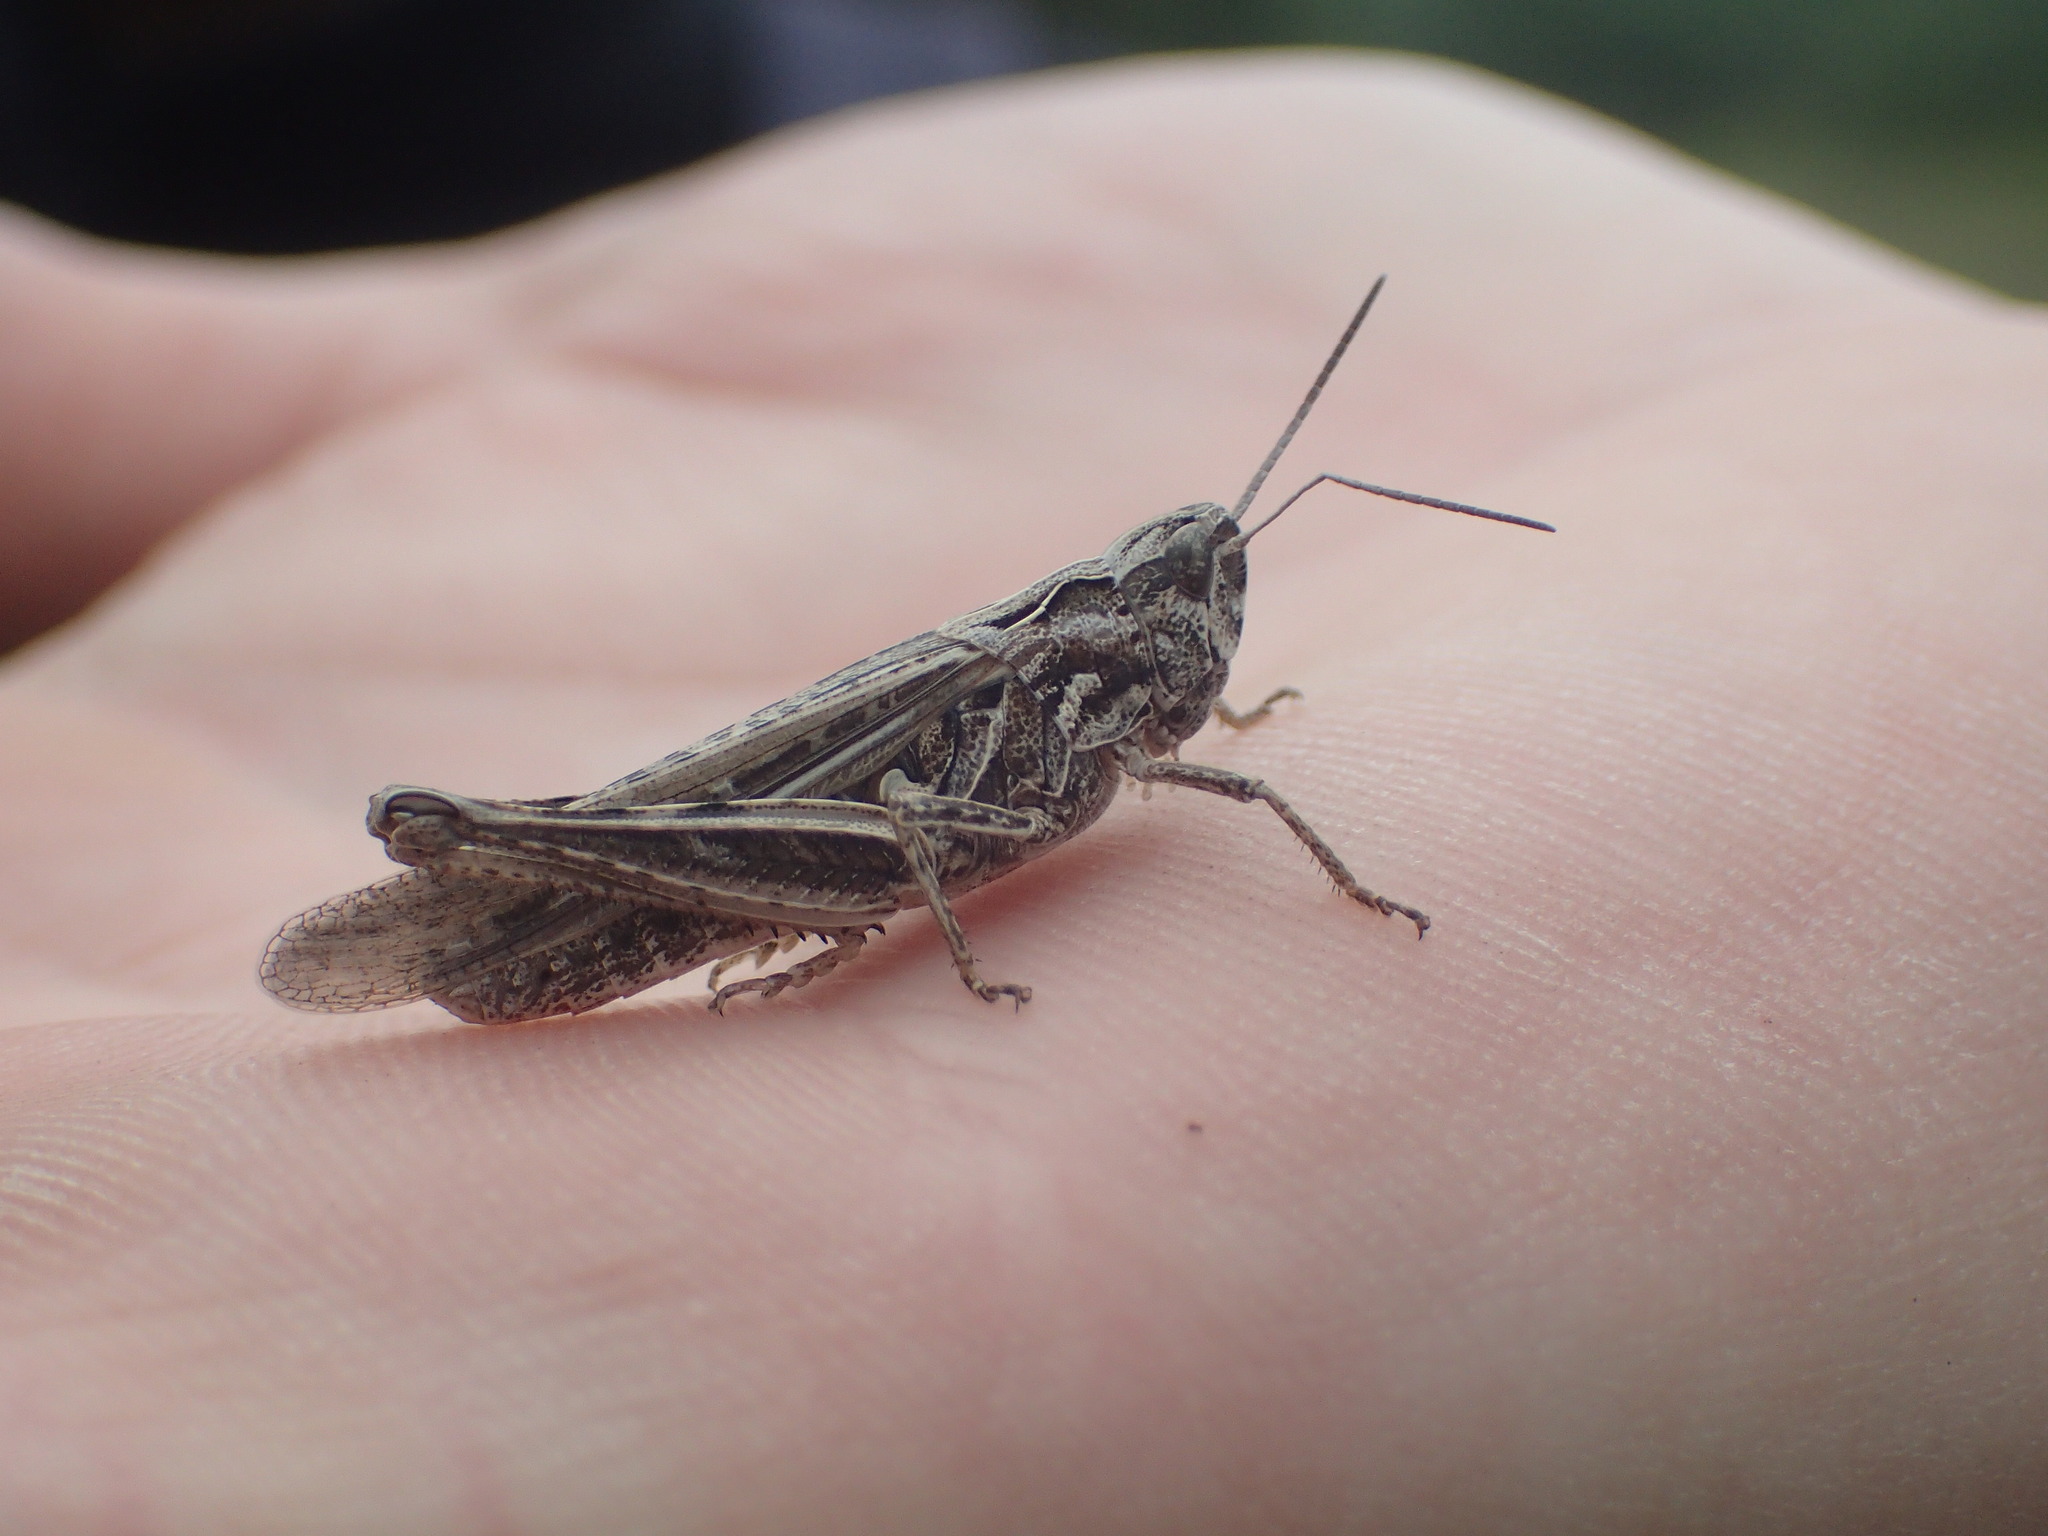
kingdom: Animalia
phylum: Arthropoda
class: Insecta
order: Orthoptera
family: Acrididae
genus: Chorthippus
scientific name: Chorthippus brunneus
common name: Field grasshopper
